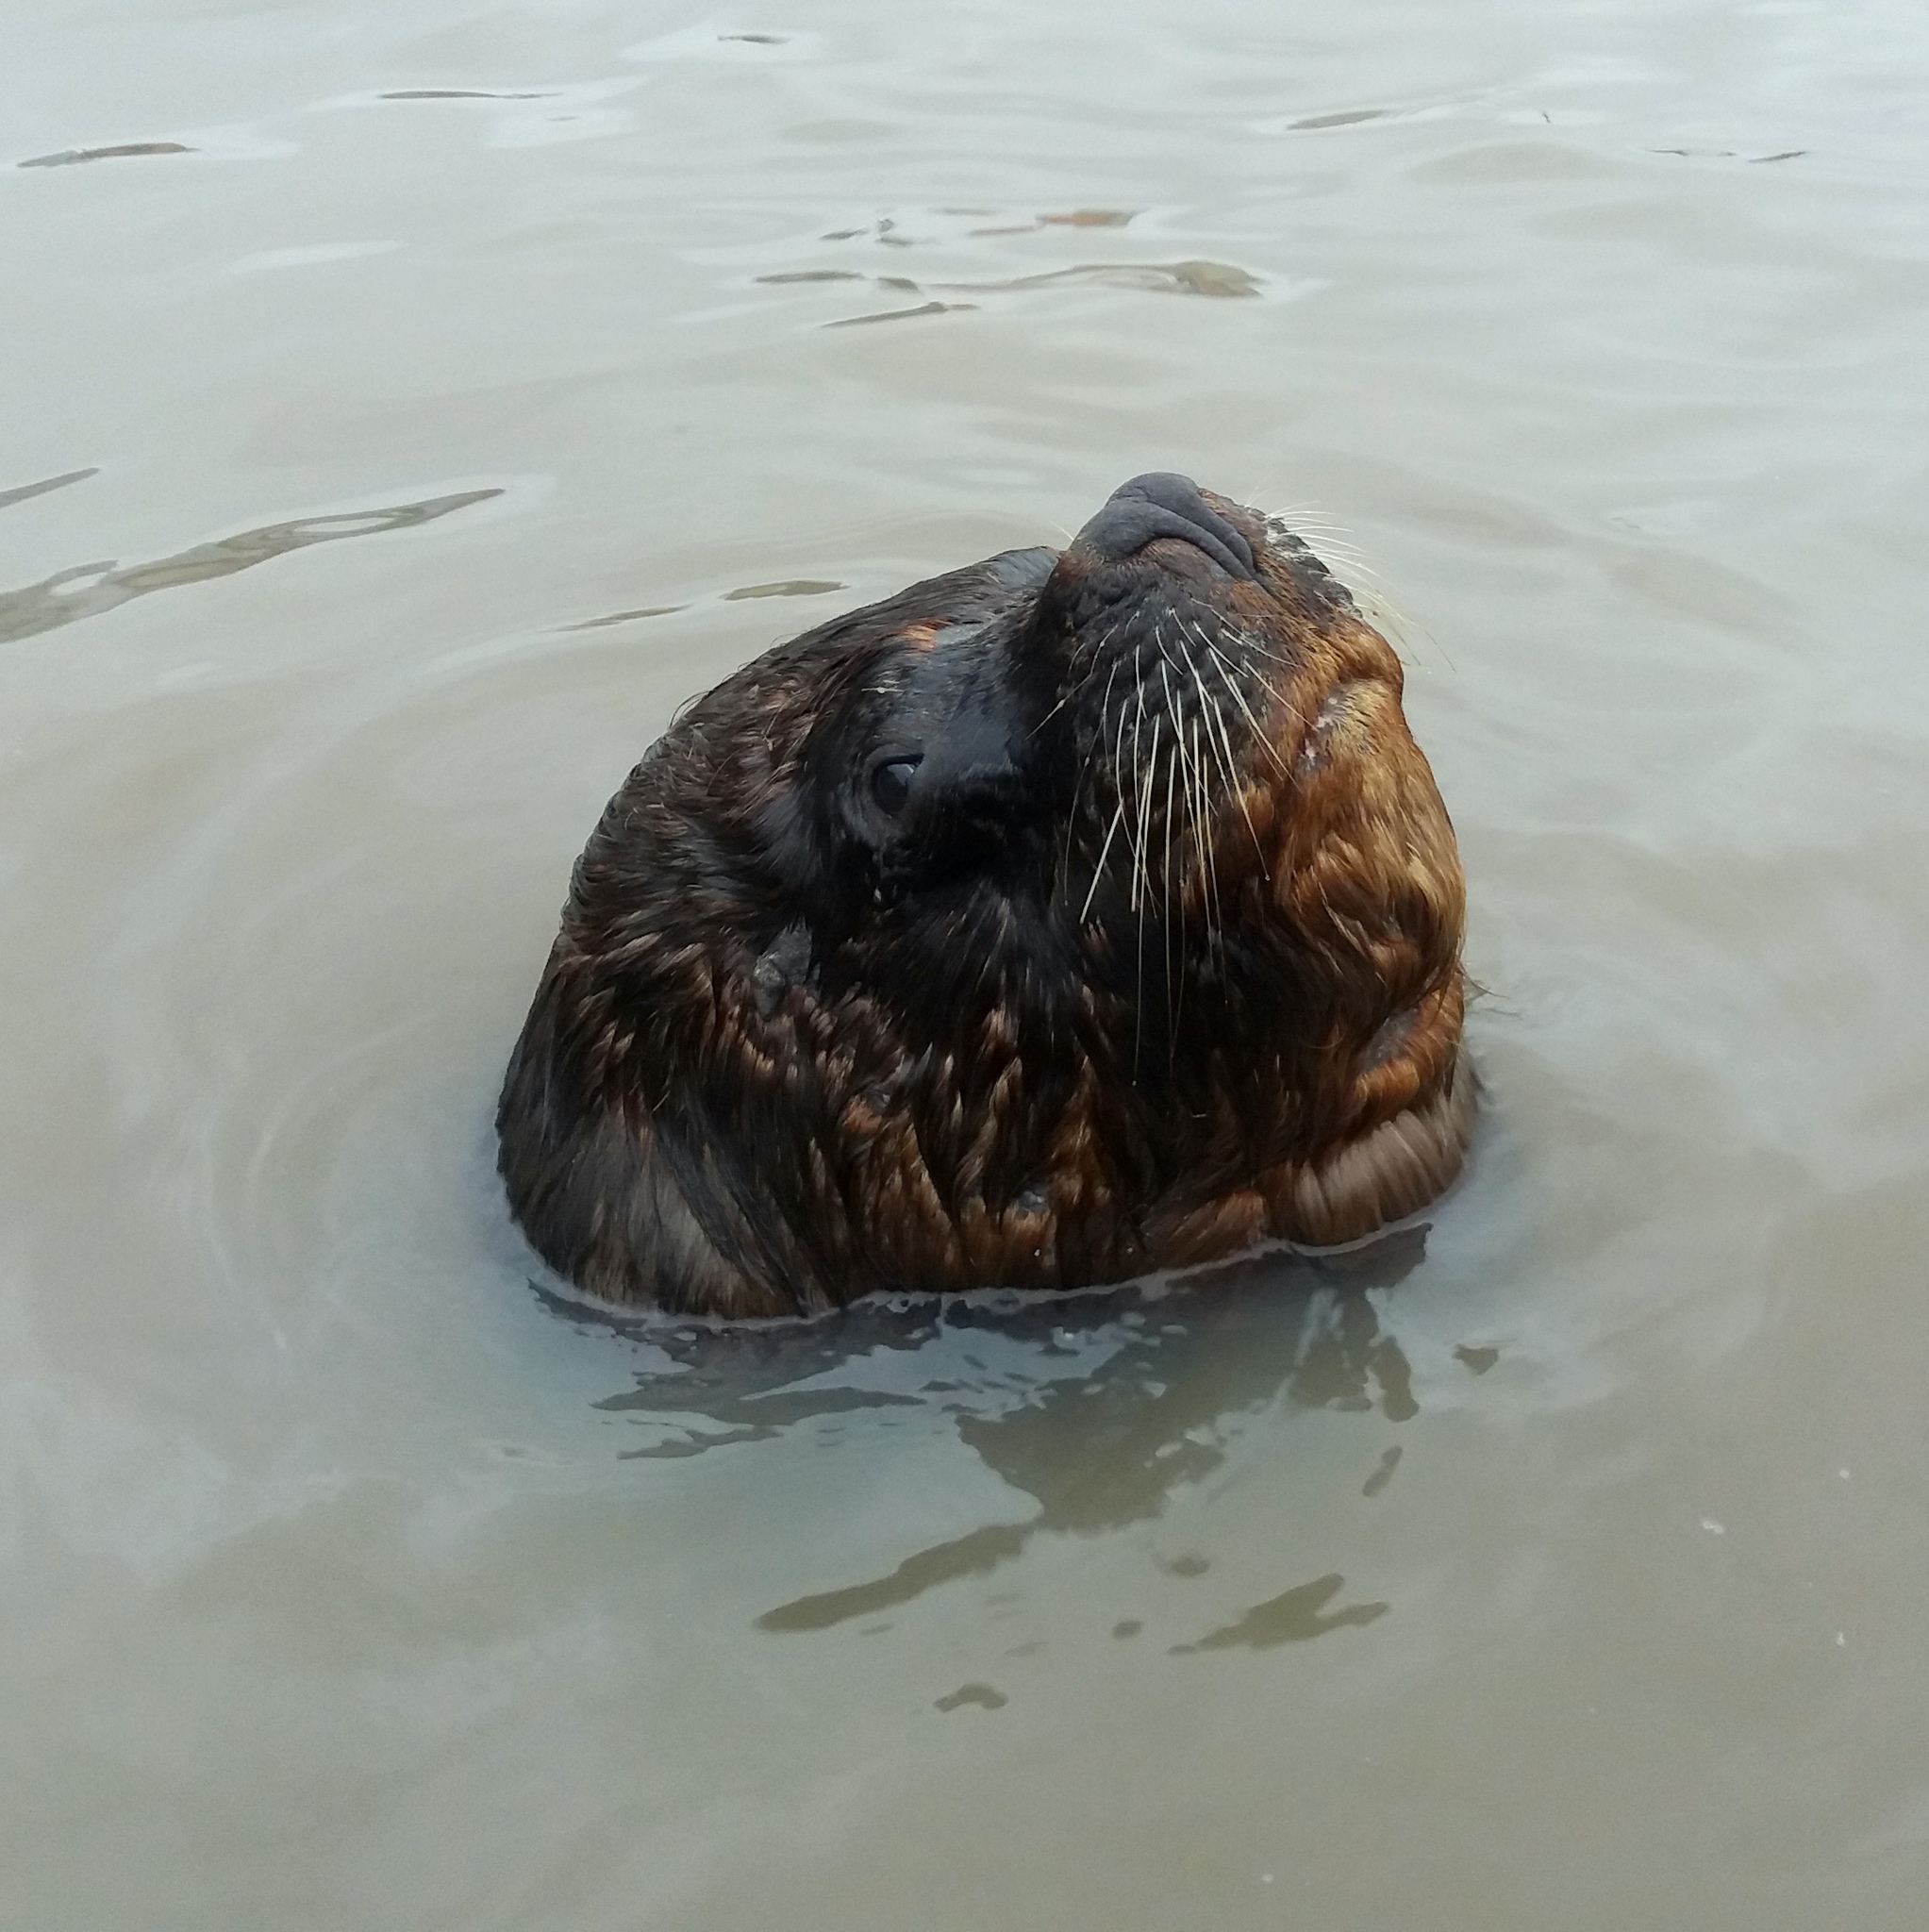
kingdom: Animalia
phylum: Chordata
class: Mammalia
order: Carnivora
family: Otariidae
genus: Otaria
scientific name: Otaria byronia
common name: South american sea lion
